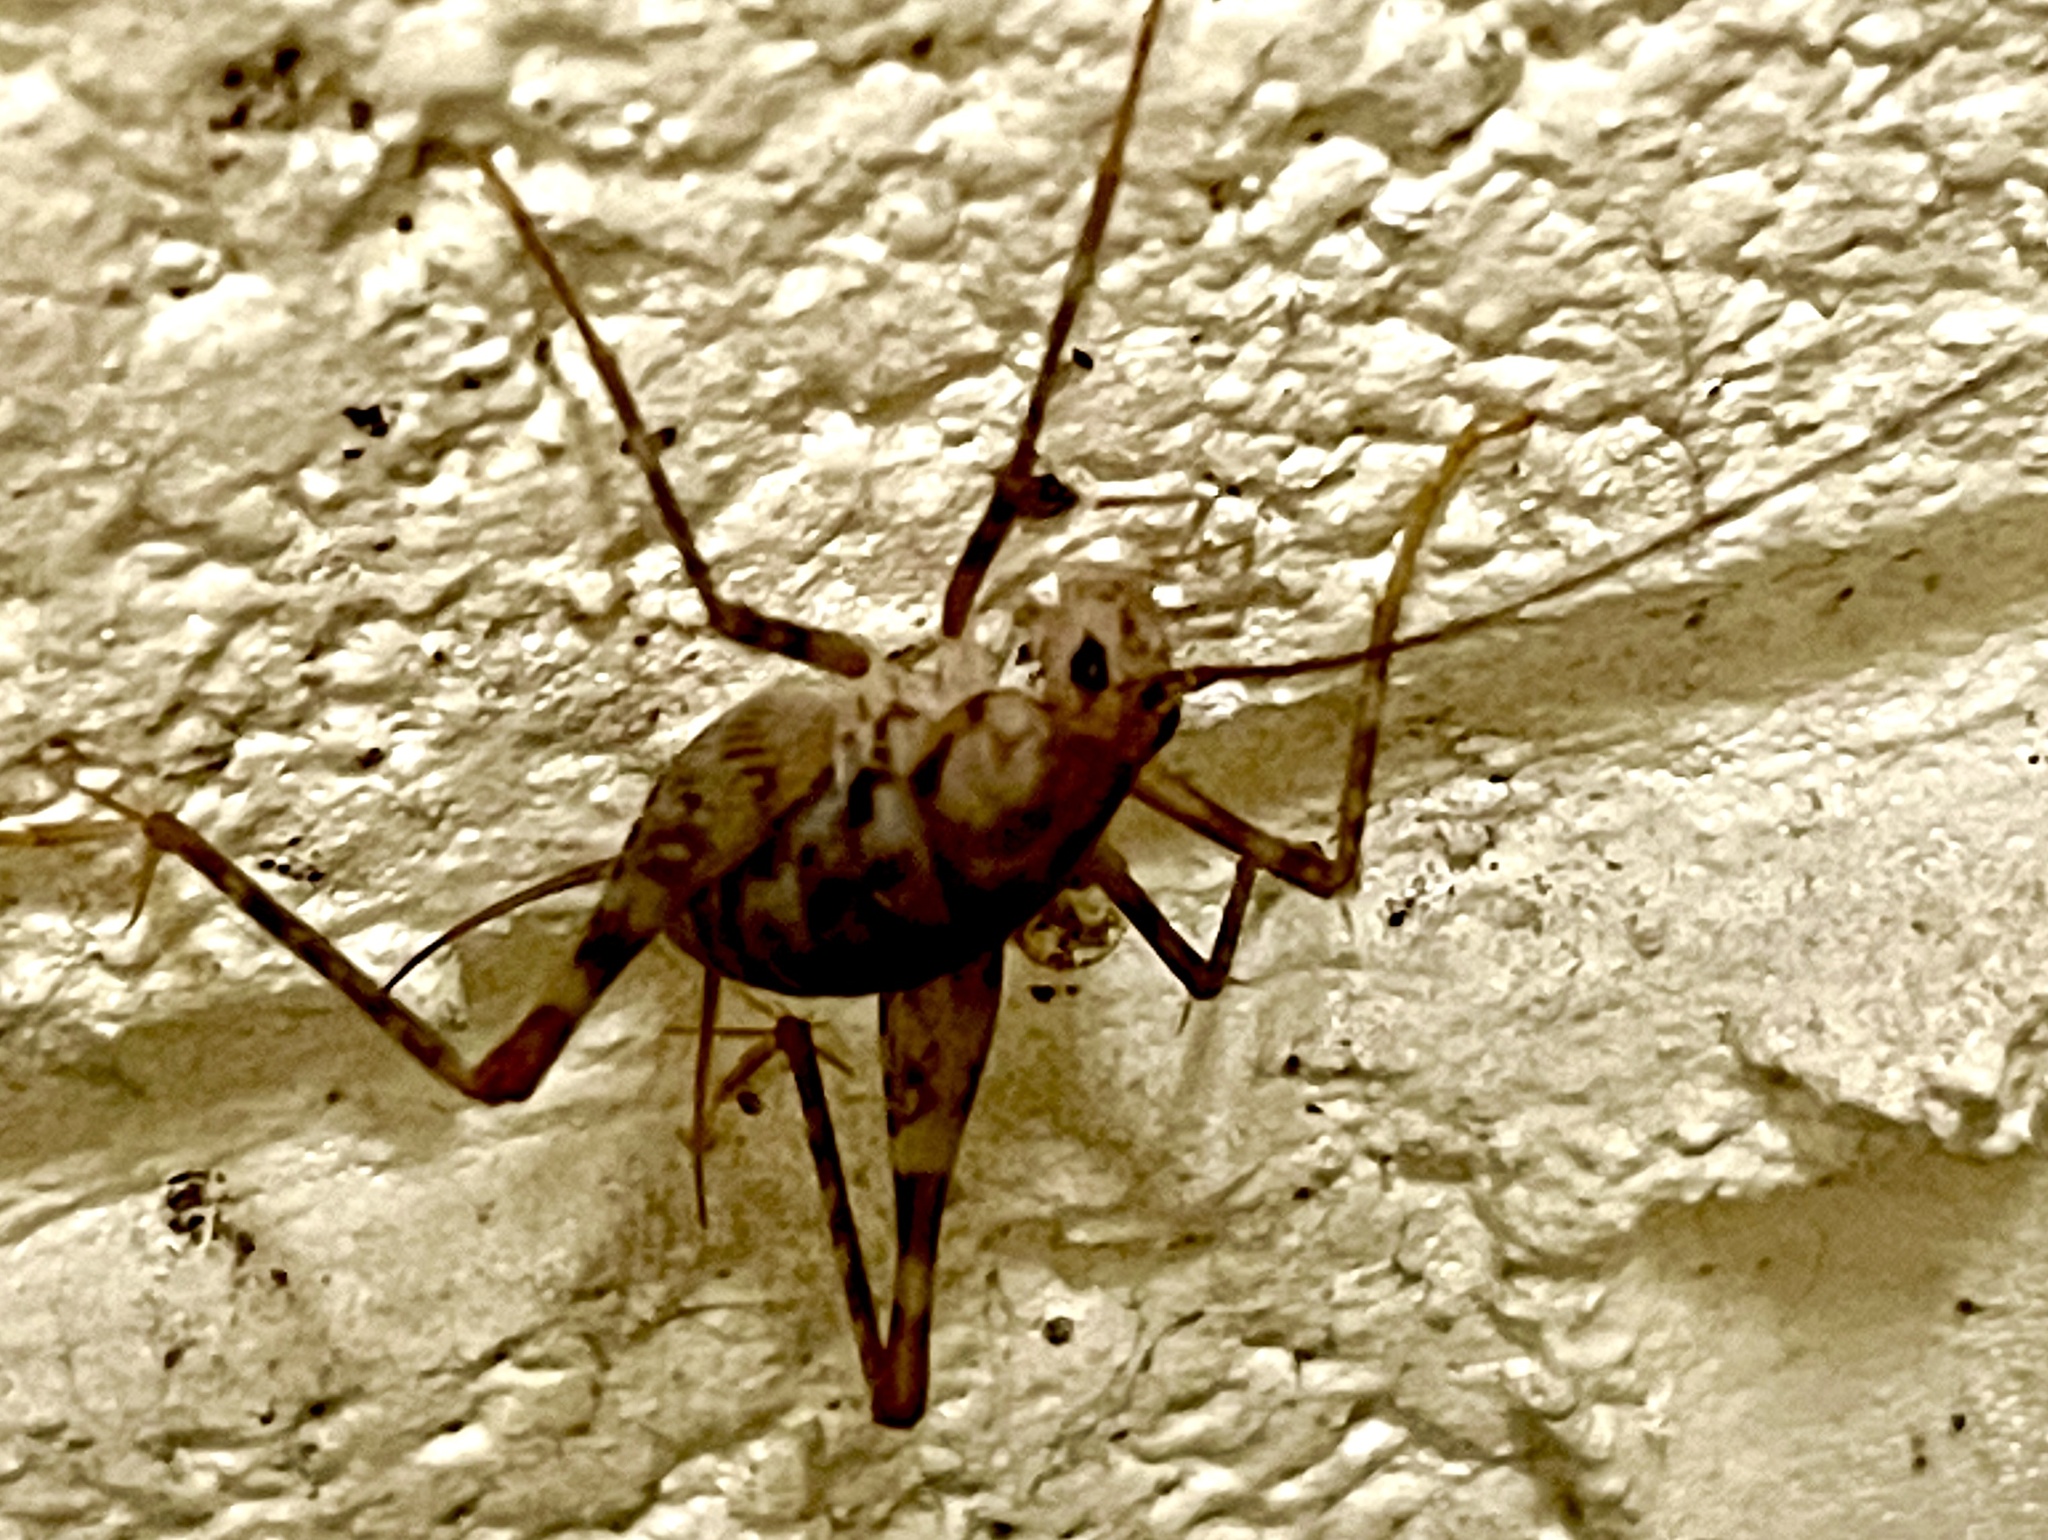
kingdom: Animalia
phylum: Arthropoda
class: Insecta
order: Orthoptera
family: Rhaphidophoridae
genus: Tachycines
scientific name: Tachycines asynamorus
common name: Greenhouse camel cricket
